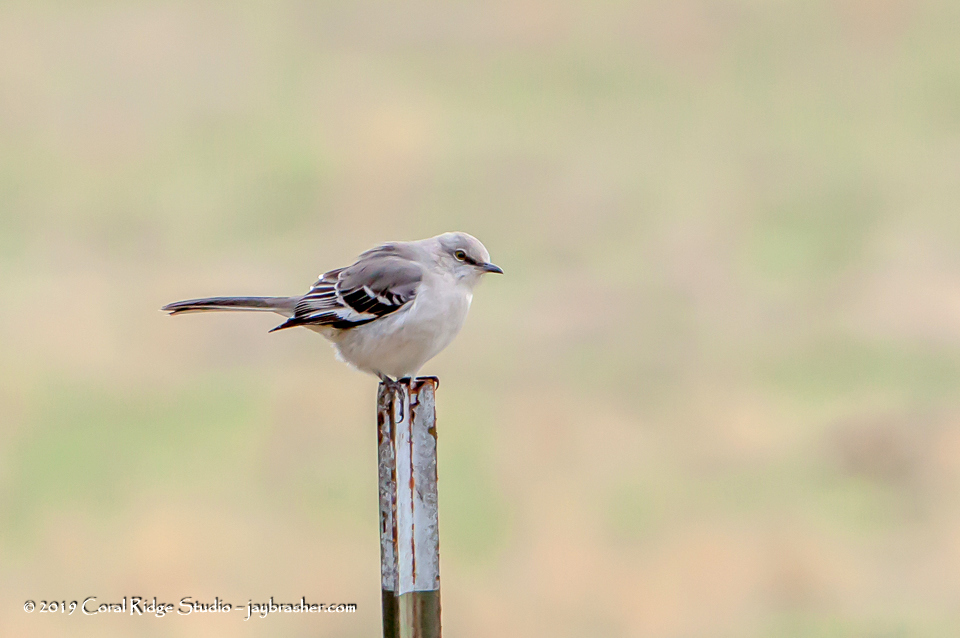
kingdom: Animalia
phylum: Chordata
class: Aves
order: Passeriformes
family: Mimidae
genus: Mimus
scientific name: Mimus polyglottos
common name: Northern mockingbird
